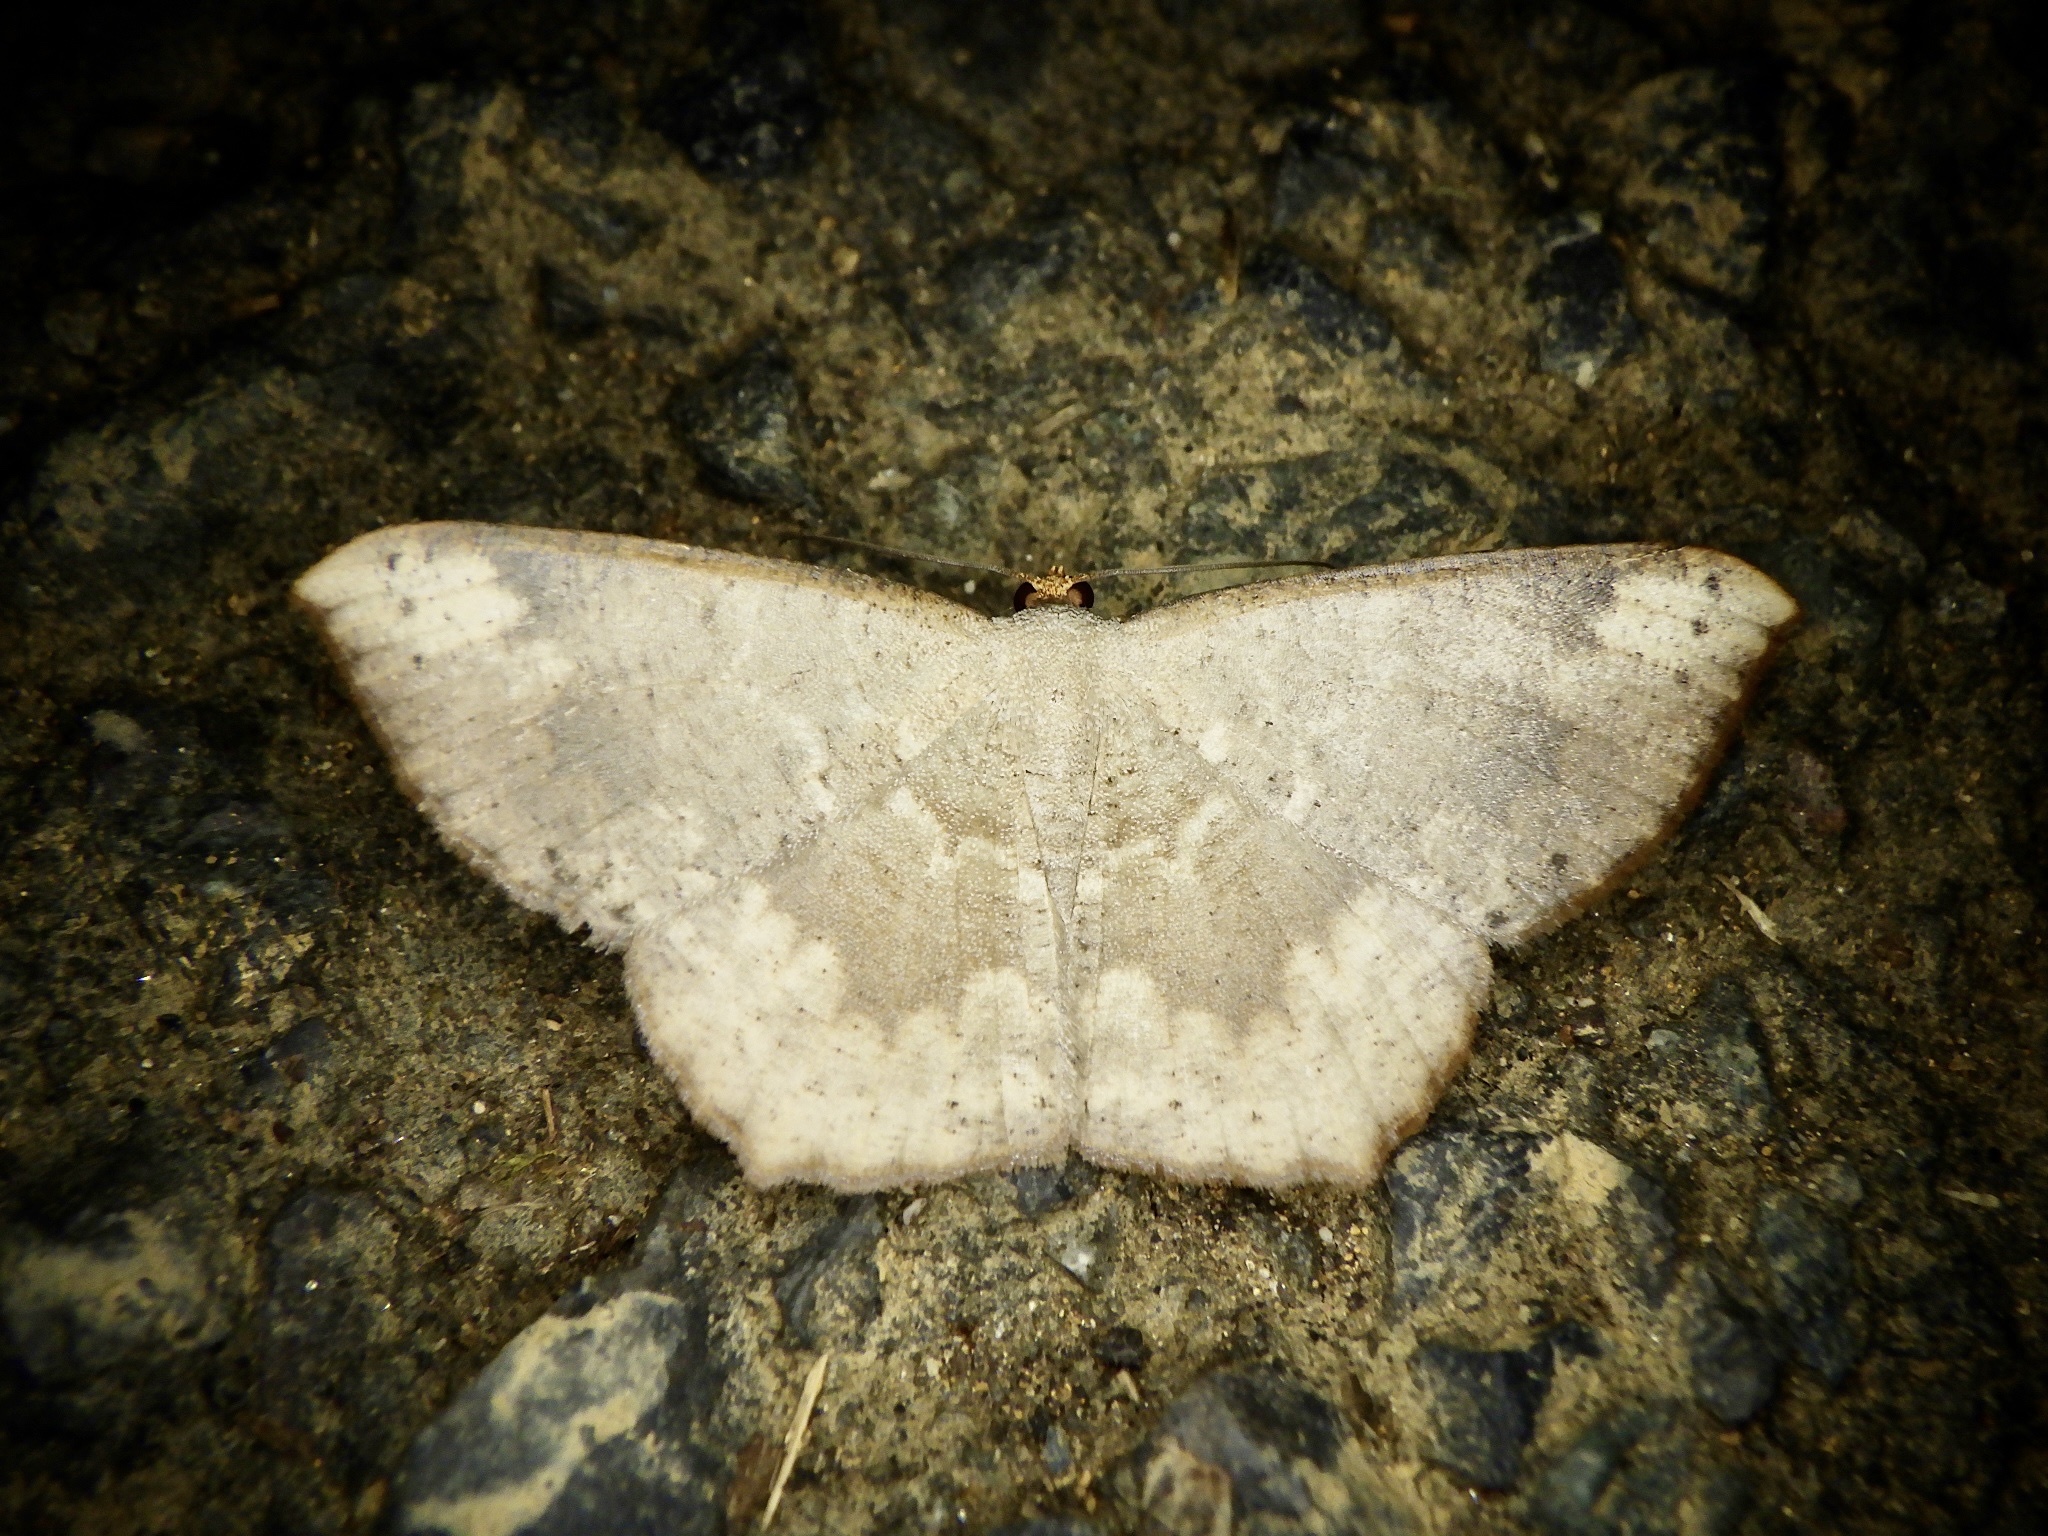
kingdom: Animalia
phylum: Arthropoda
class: Insecta
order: Lepidoptera
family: Geometridae
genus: Peratostega
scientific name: Peratostega deletaria
